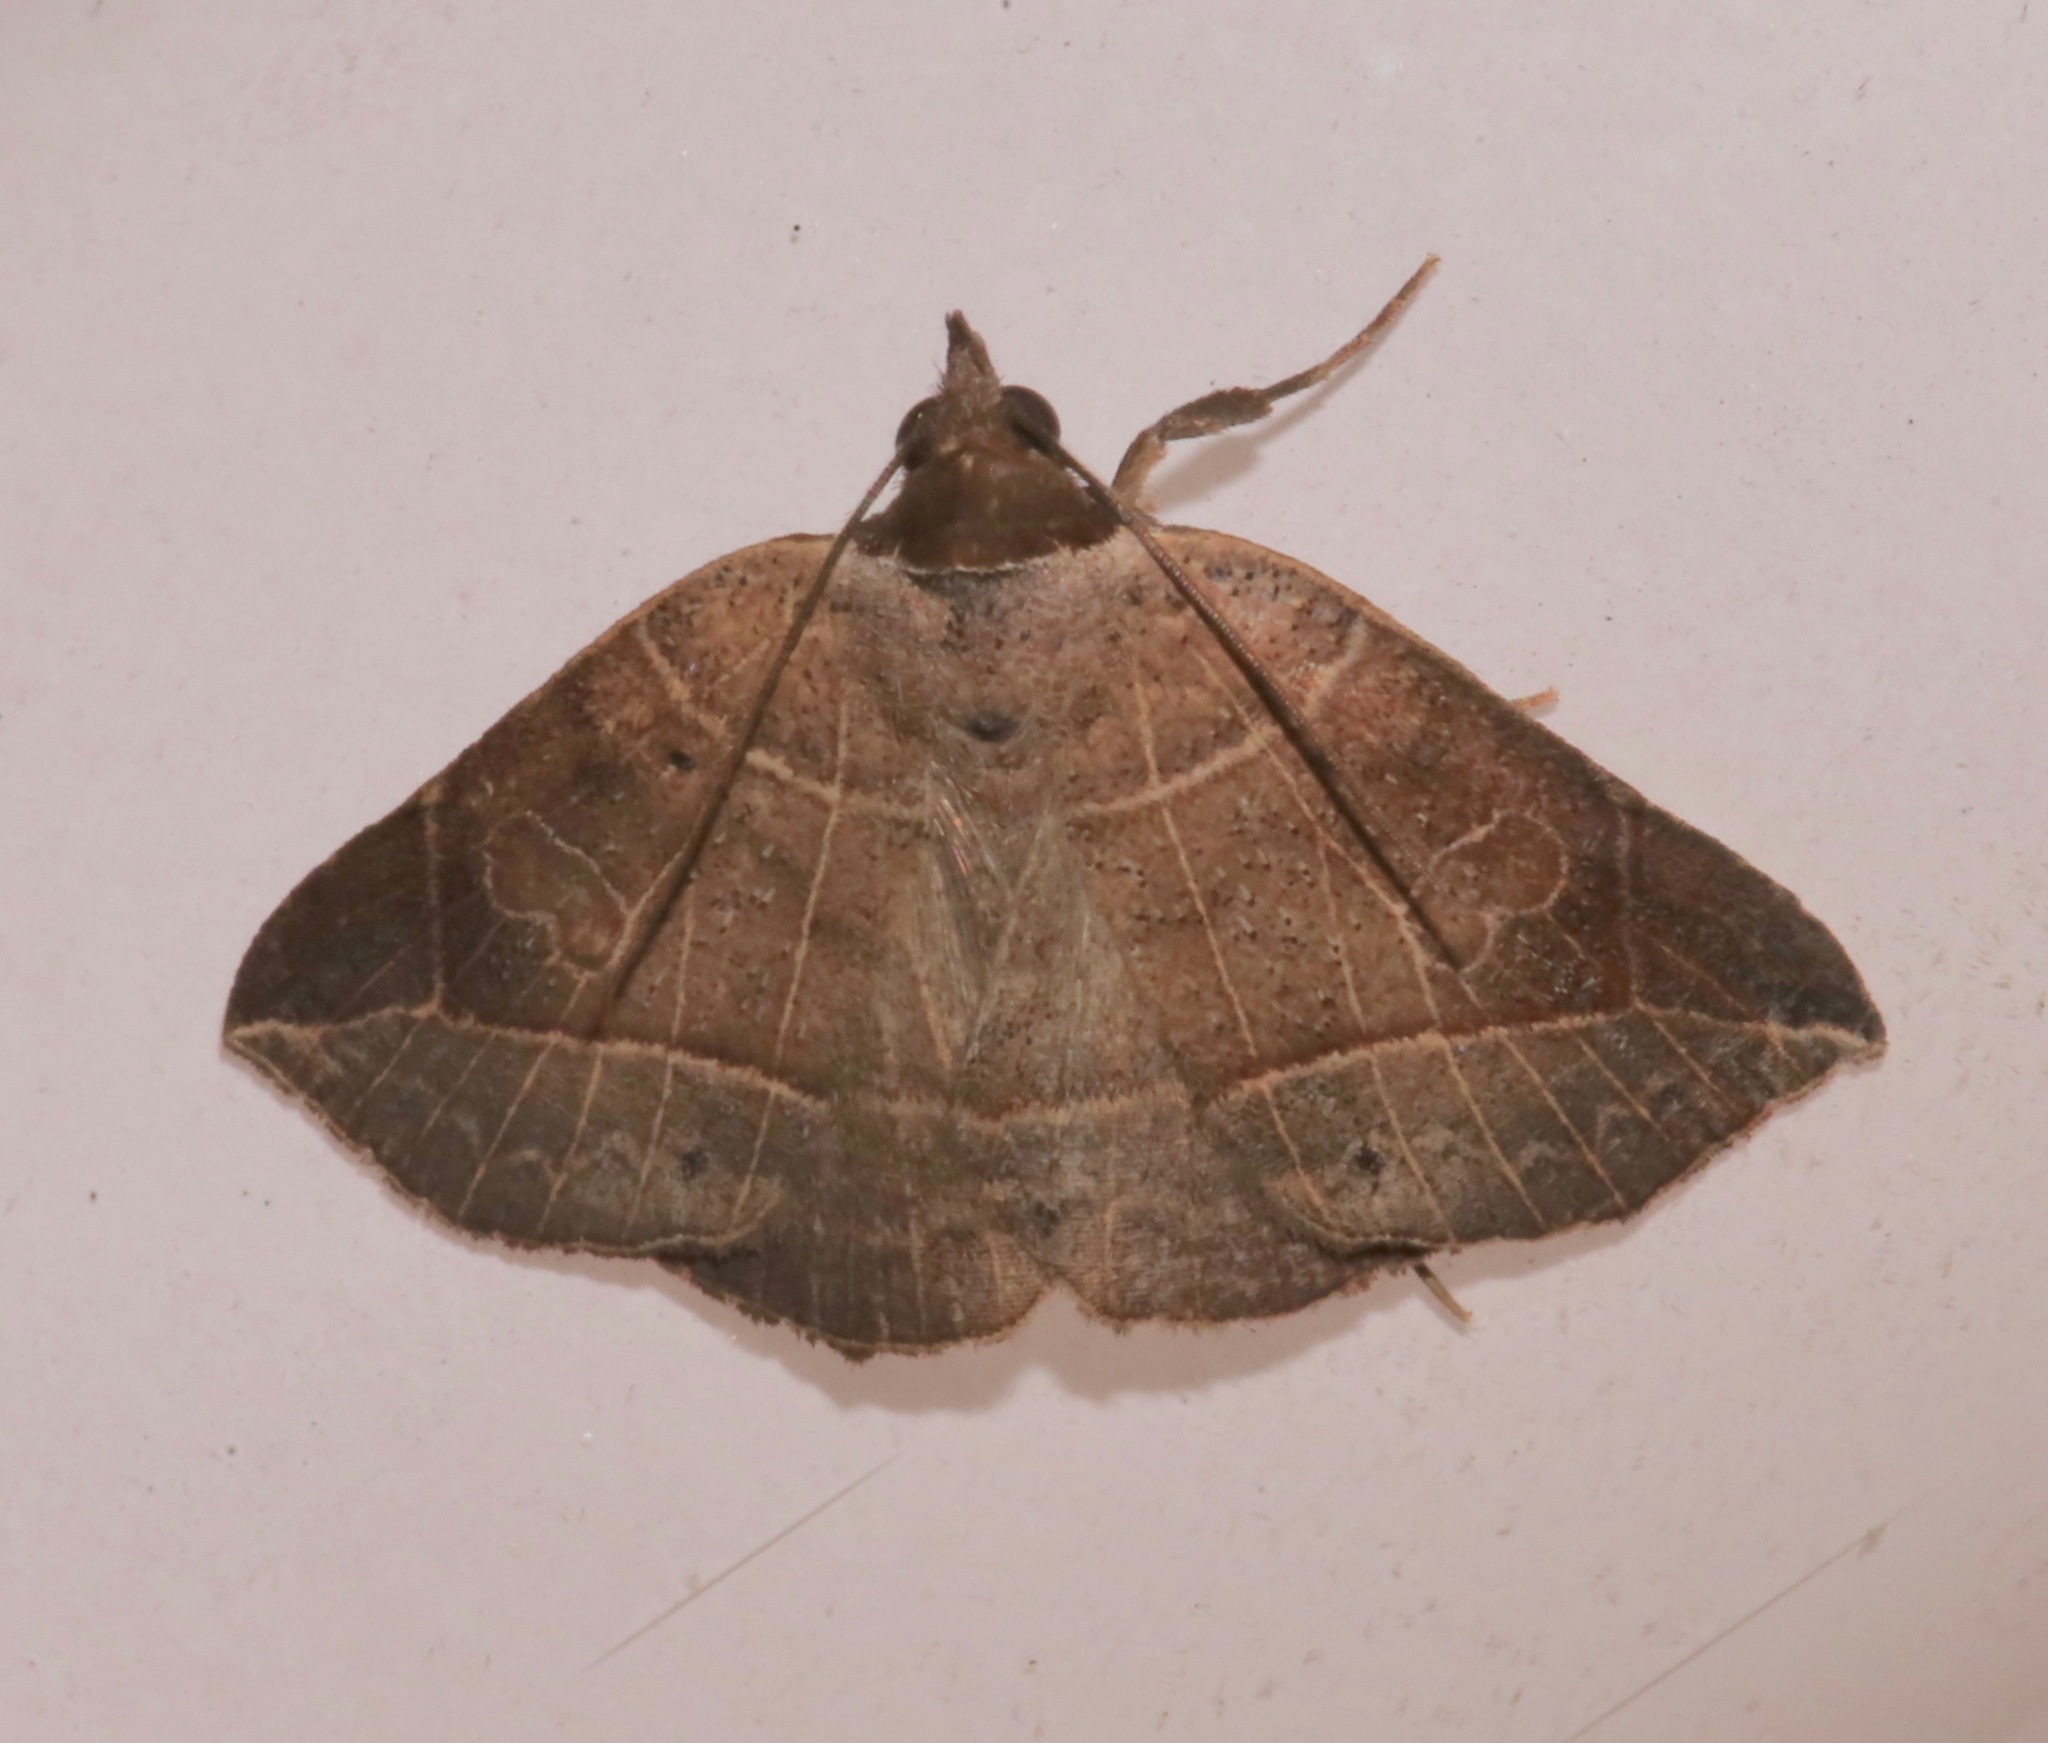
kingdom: Animalia
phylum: Arthropoda
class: Insecta
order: Lepidoptera
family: Erebidae
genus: Isogona
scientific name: Isogona tenuis
